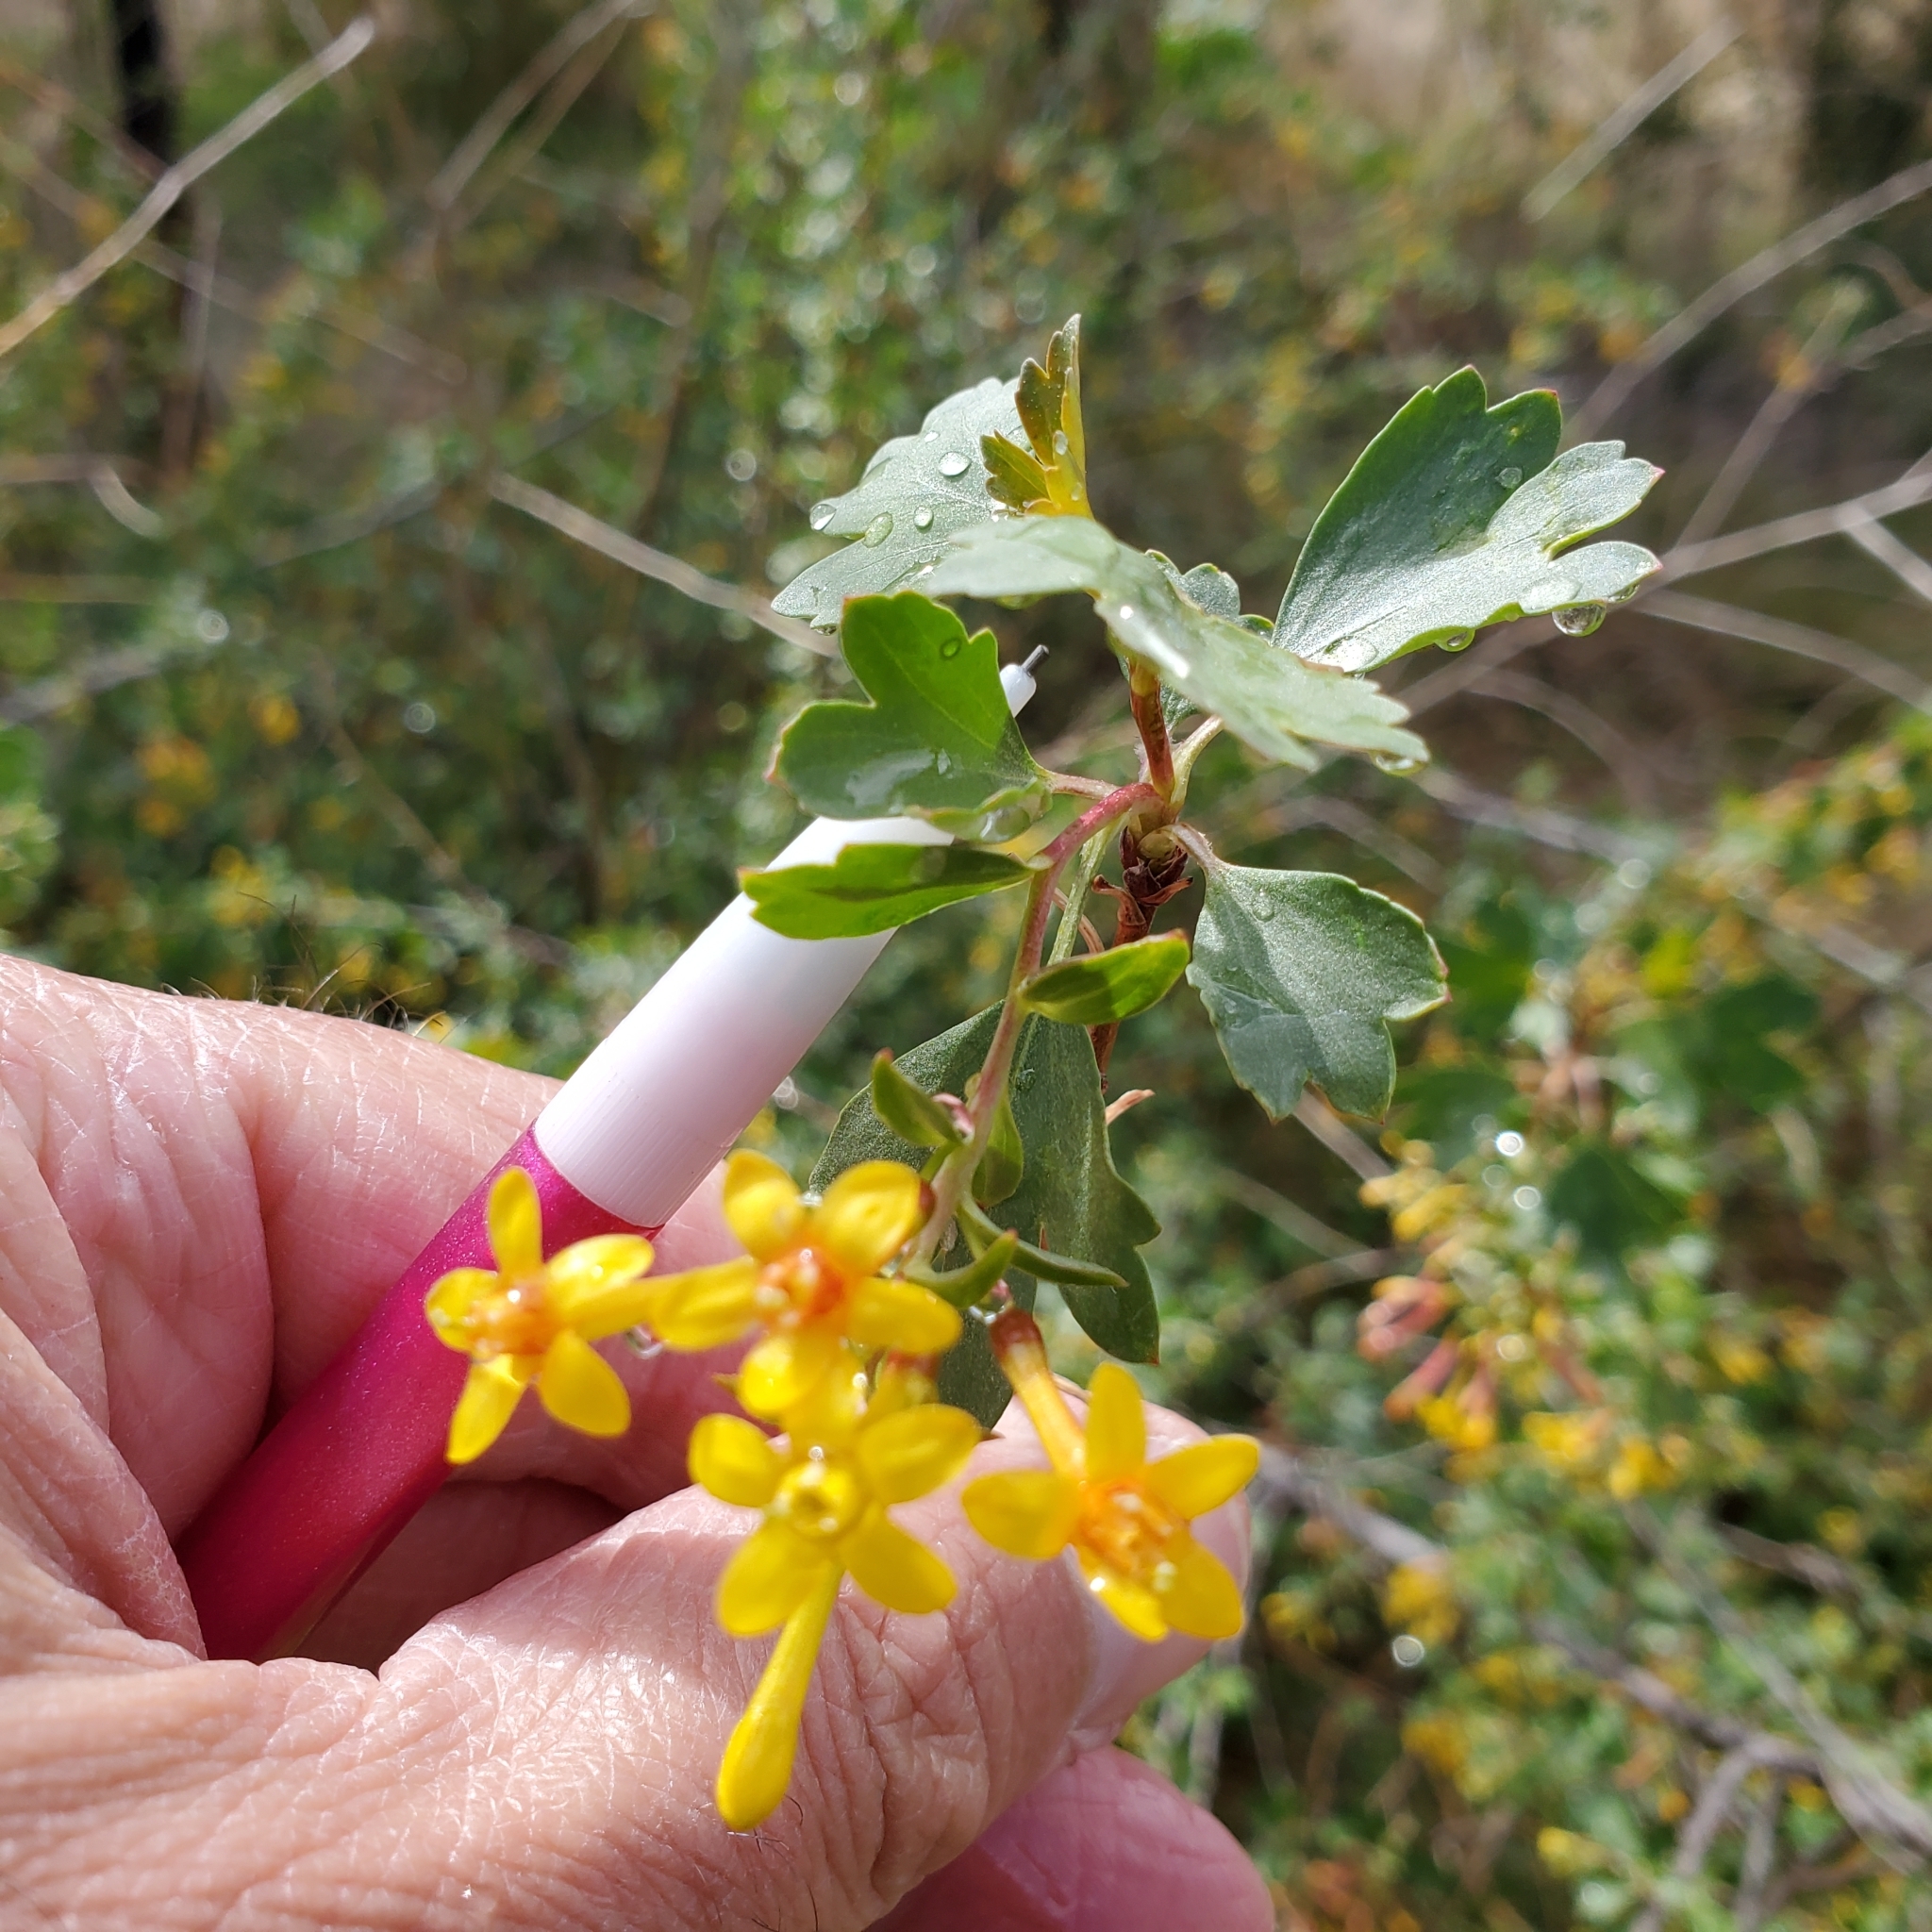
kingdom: Plantae
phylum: Tracheophyta
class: Magnoliopsida
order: Saxifragales
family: Grossulariaceae
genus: Ribes
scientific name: Ribes aureum
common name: Golden currant
